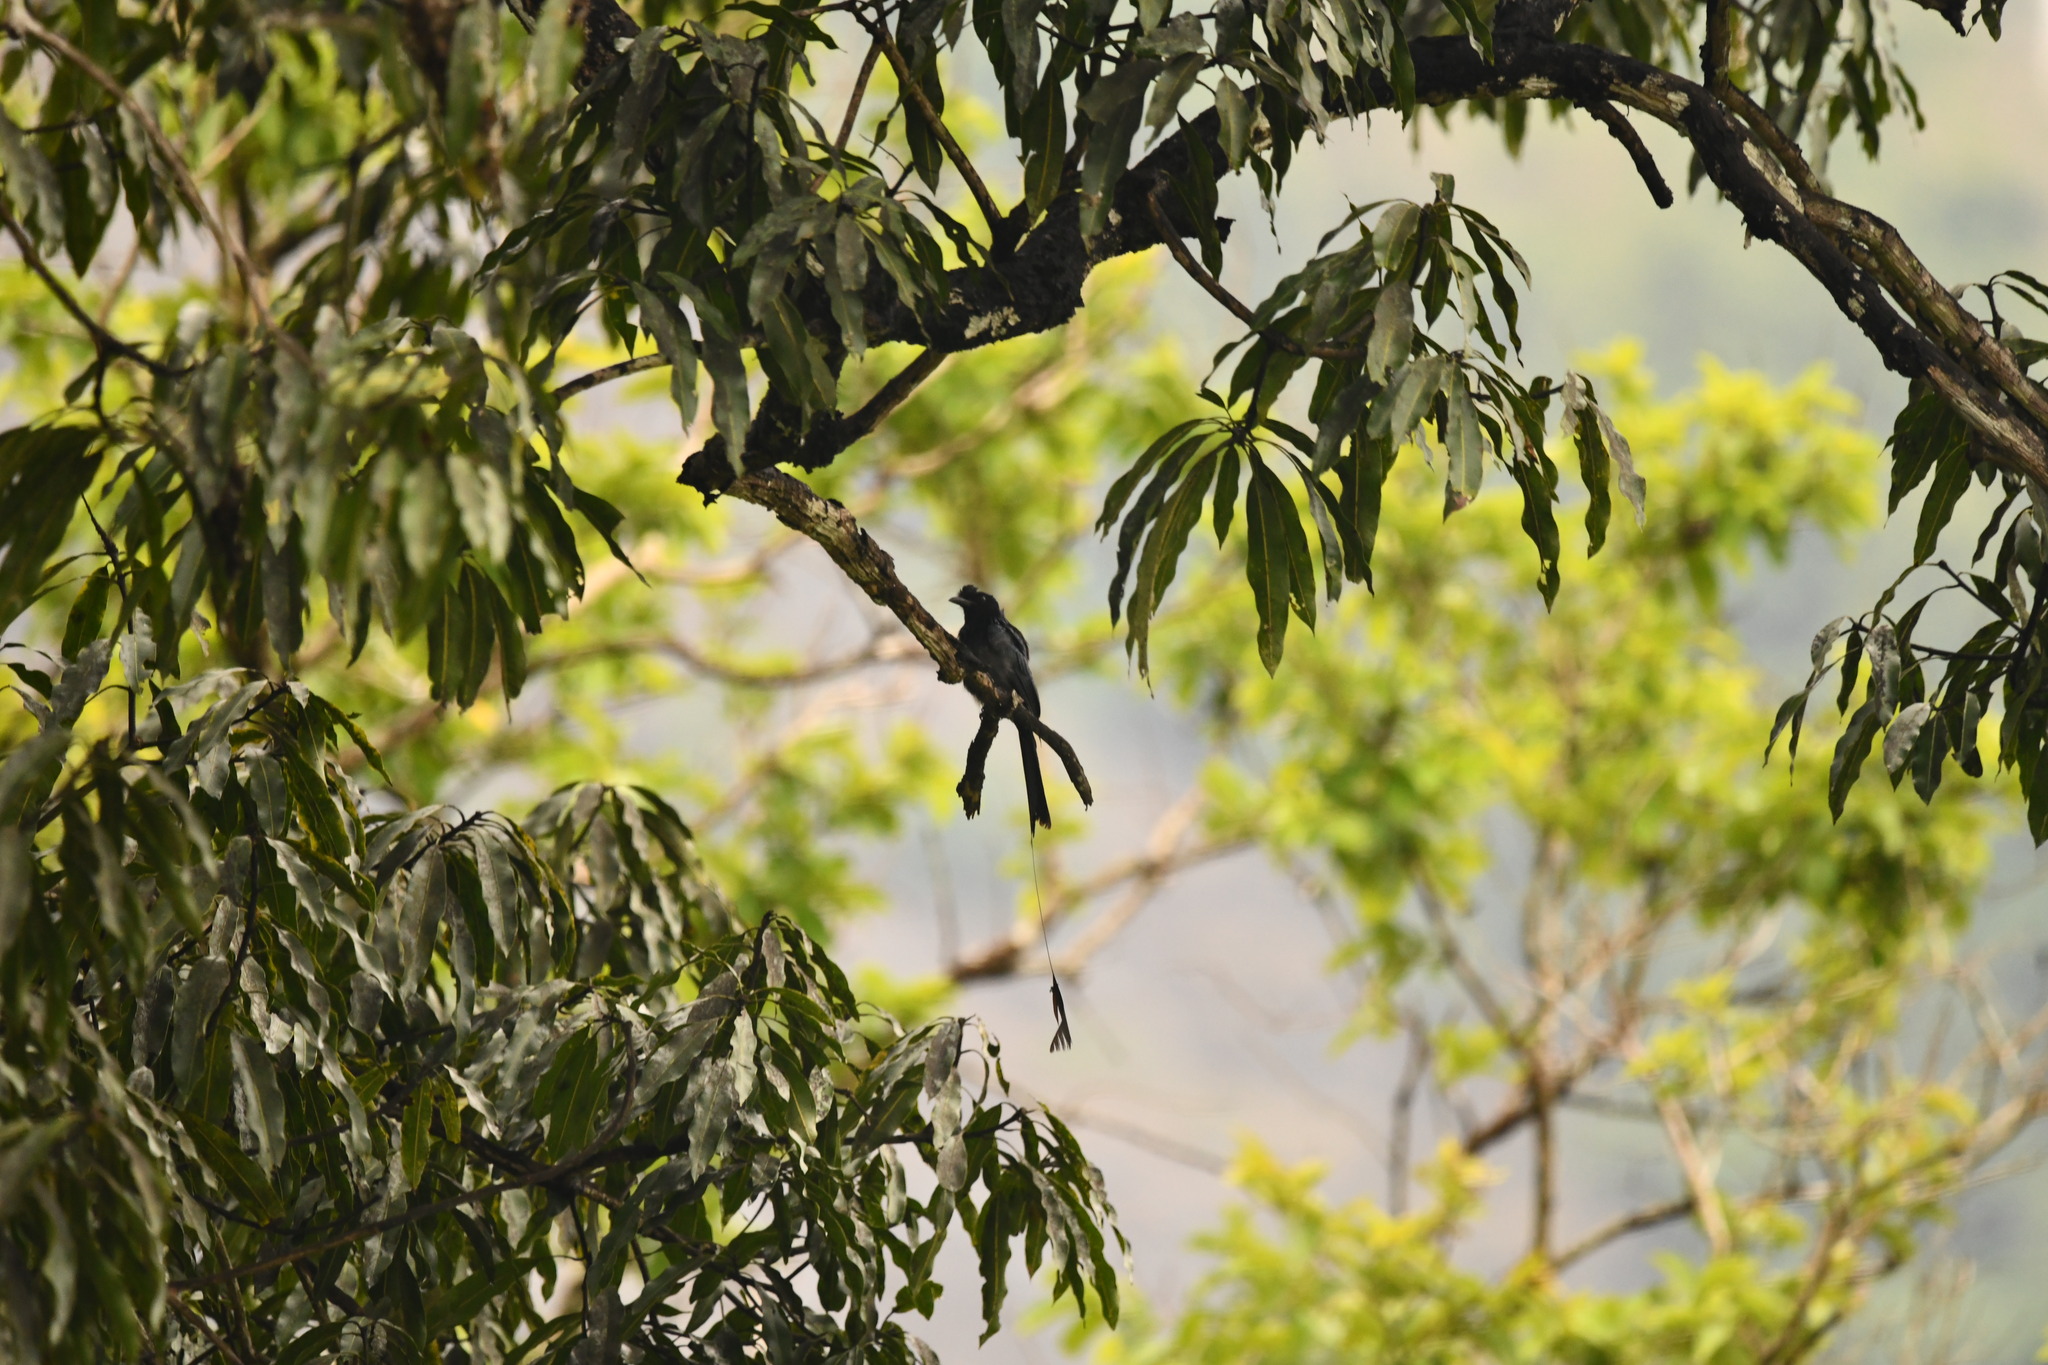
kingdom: Animalia
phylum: Chordata
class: Aves
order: Passeriformes
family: Dicruridae
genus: Dicrurus
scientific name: Dicrurus paradiseus
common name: Greater racket-tailed drongo
